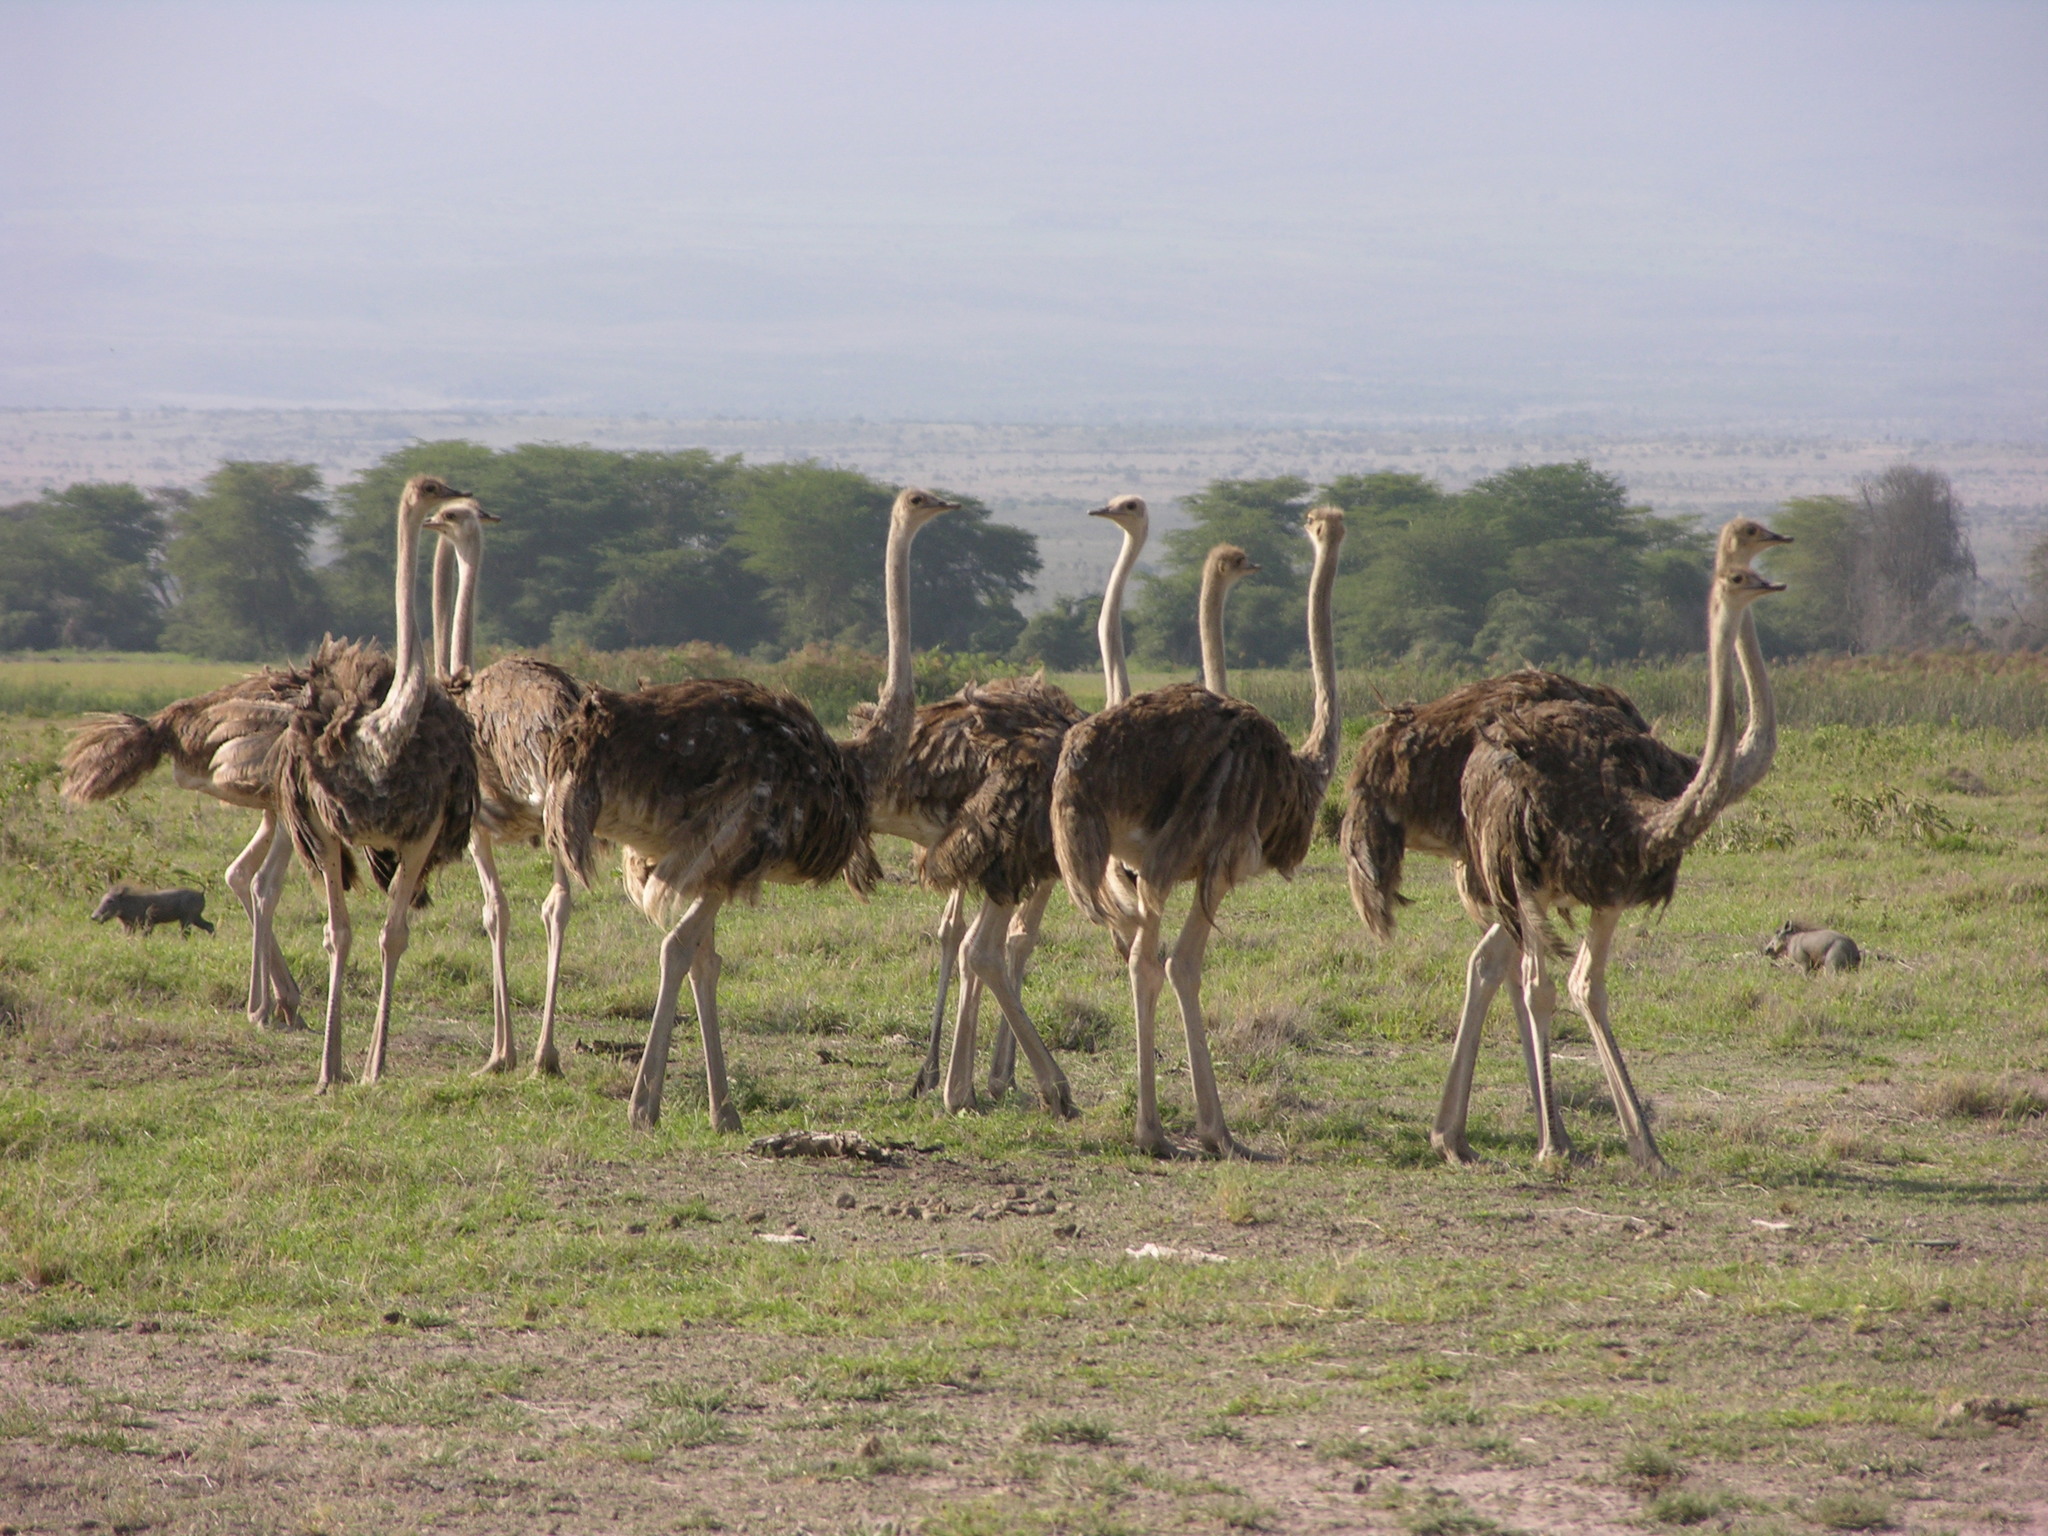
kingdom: Animalia
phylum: Chordata
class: Aves
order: Struthioniformes
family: Struthionidae
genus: Struthio
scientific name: Struthio camelus
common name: Common ostrich
